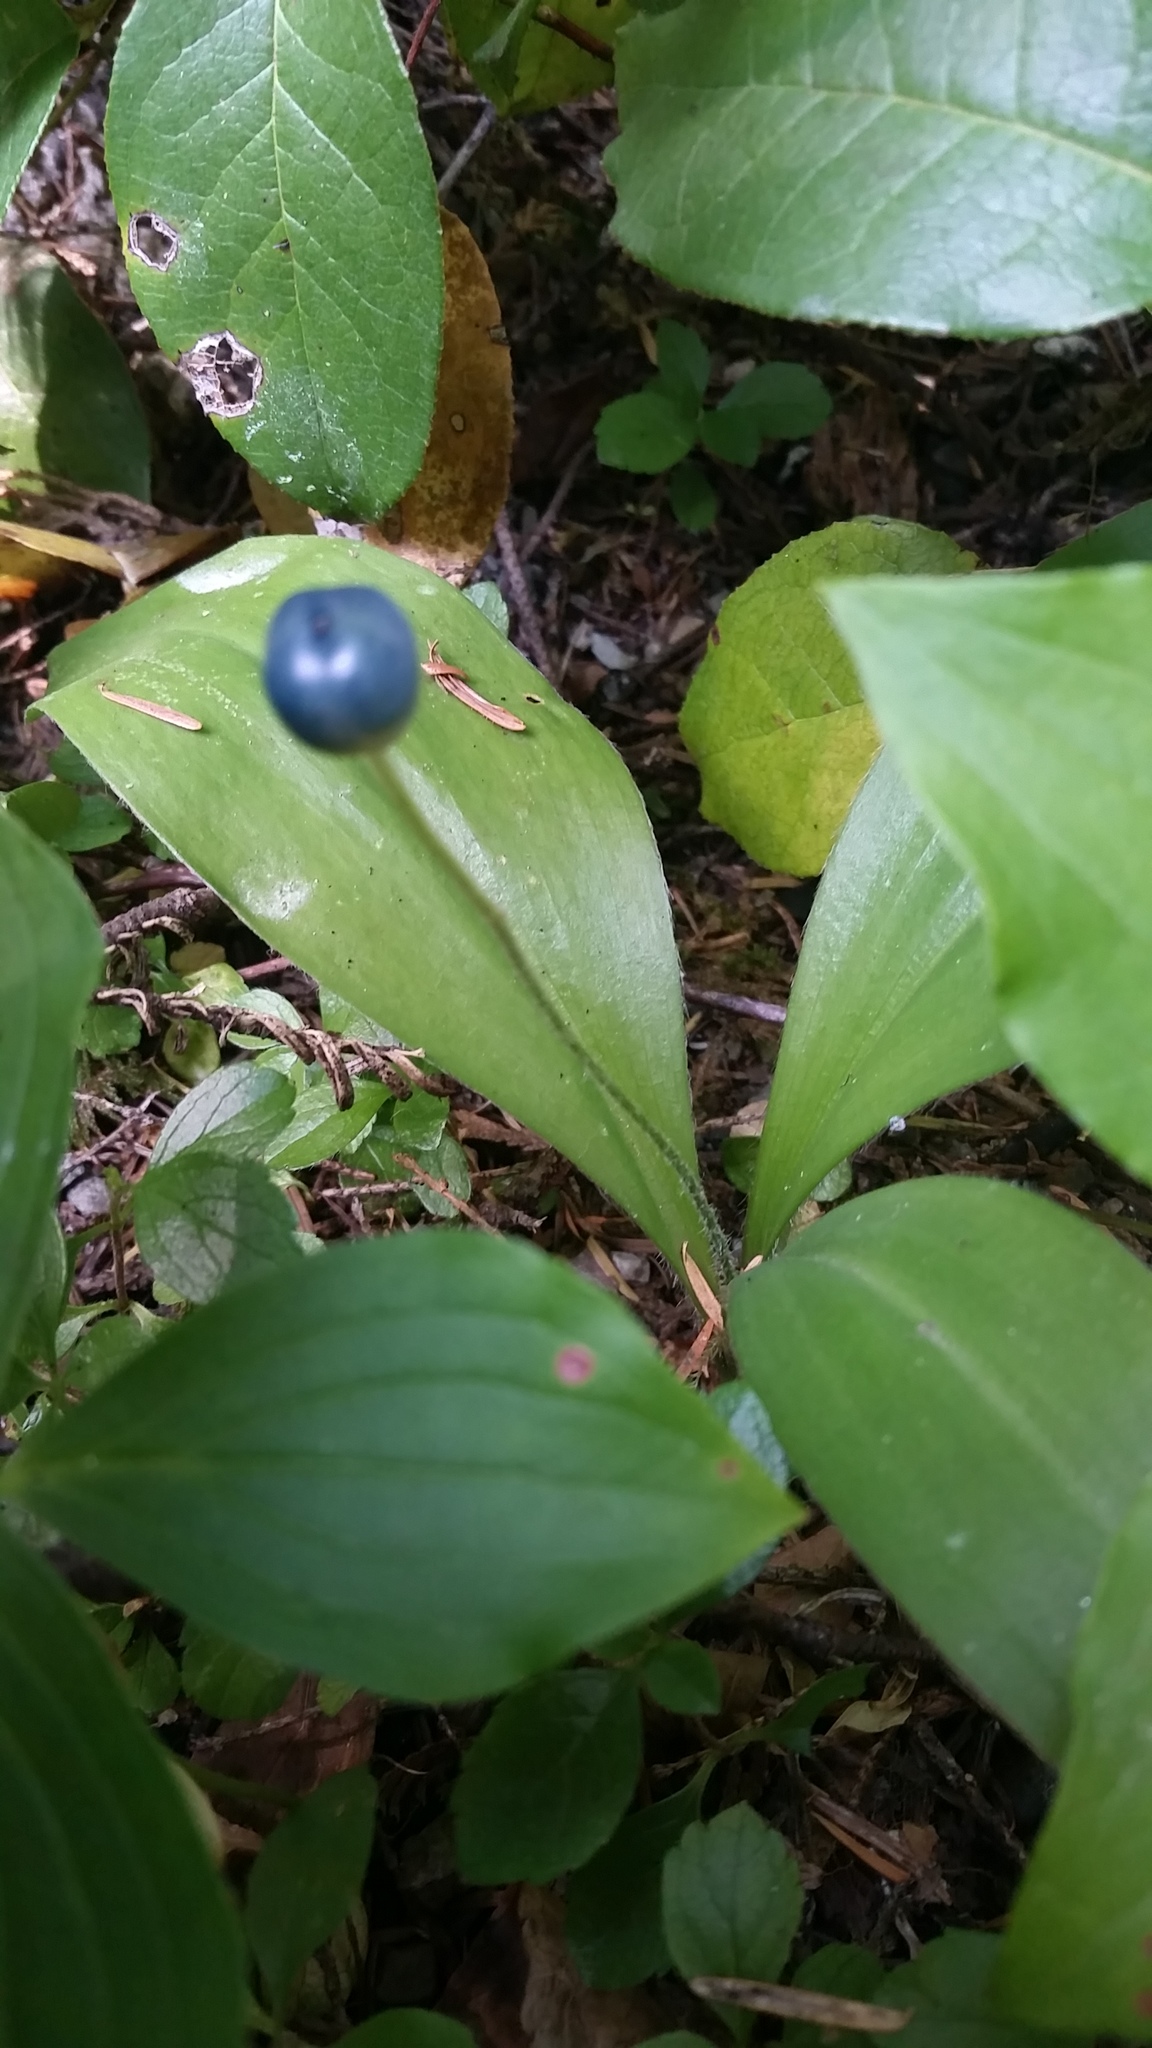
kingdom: Plantae
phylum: Tracheophyta
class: Liliopsida
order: Liliales
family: Liliaceae
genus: Clintonia
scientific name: Clintonia uniflora
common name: Queen's cup
